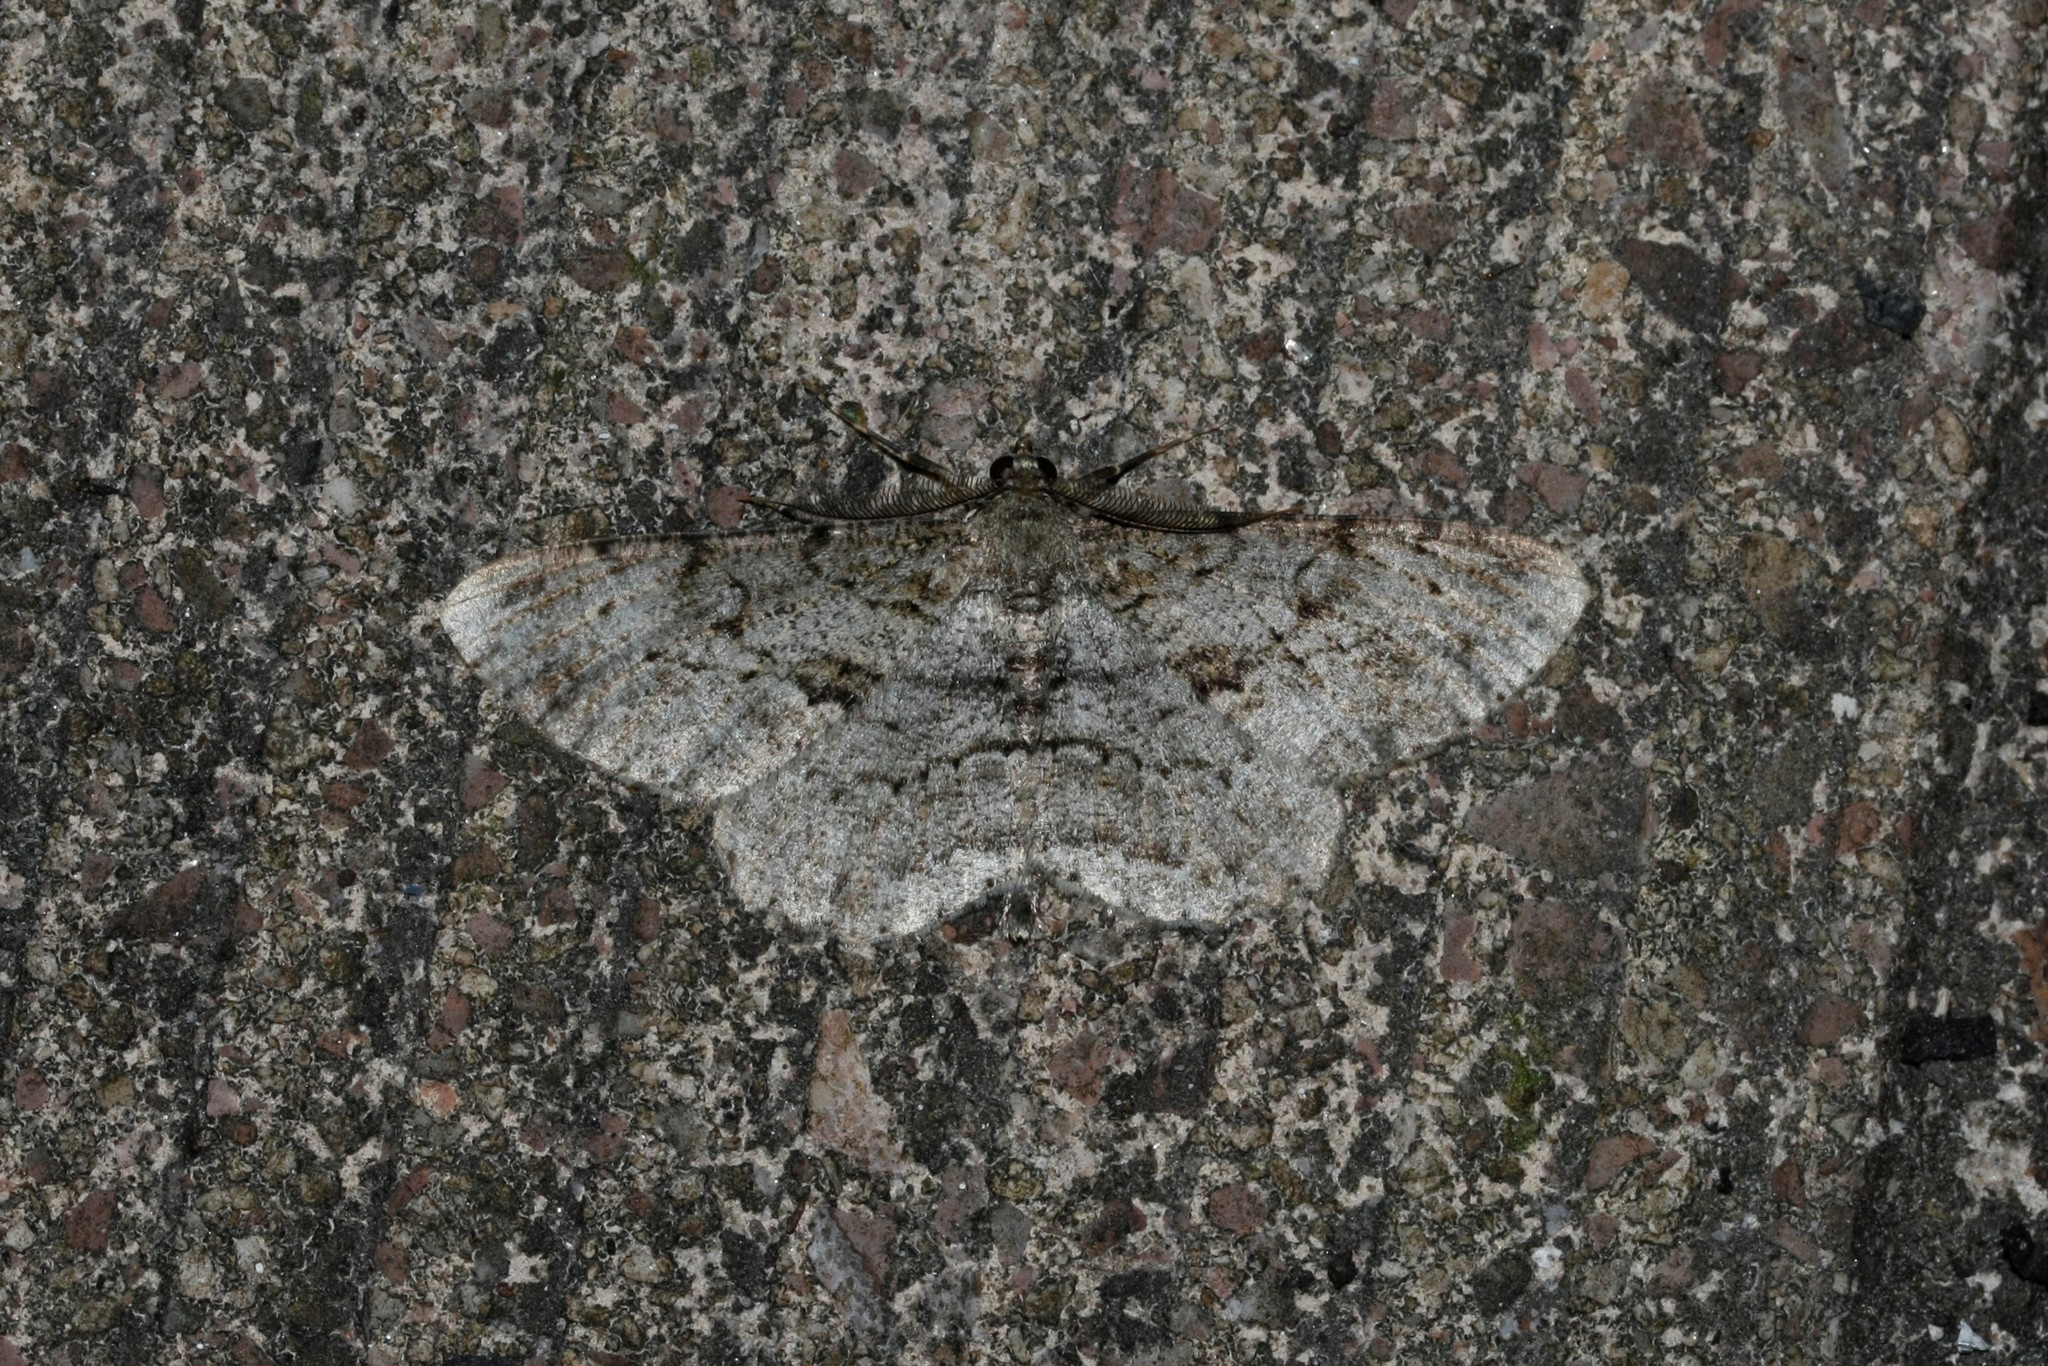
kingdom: Animalia
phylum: Arthropoda
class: Insecta
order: Lepidoptera
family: Geometridae
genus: Peribatodes
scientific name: Peribatodes rhomboidaria
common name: Willow beauty
